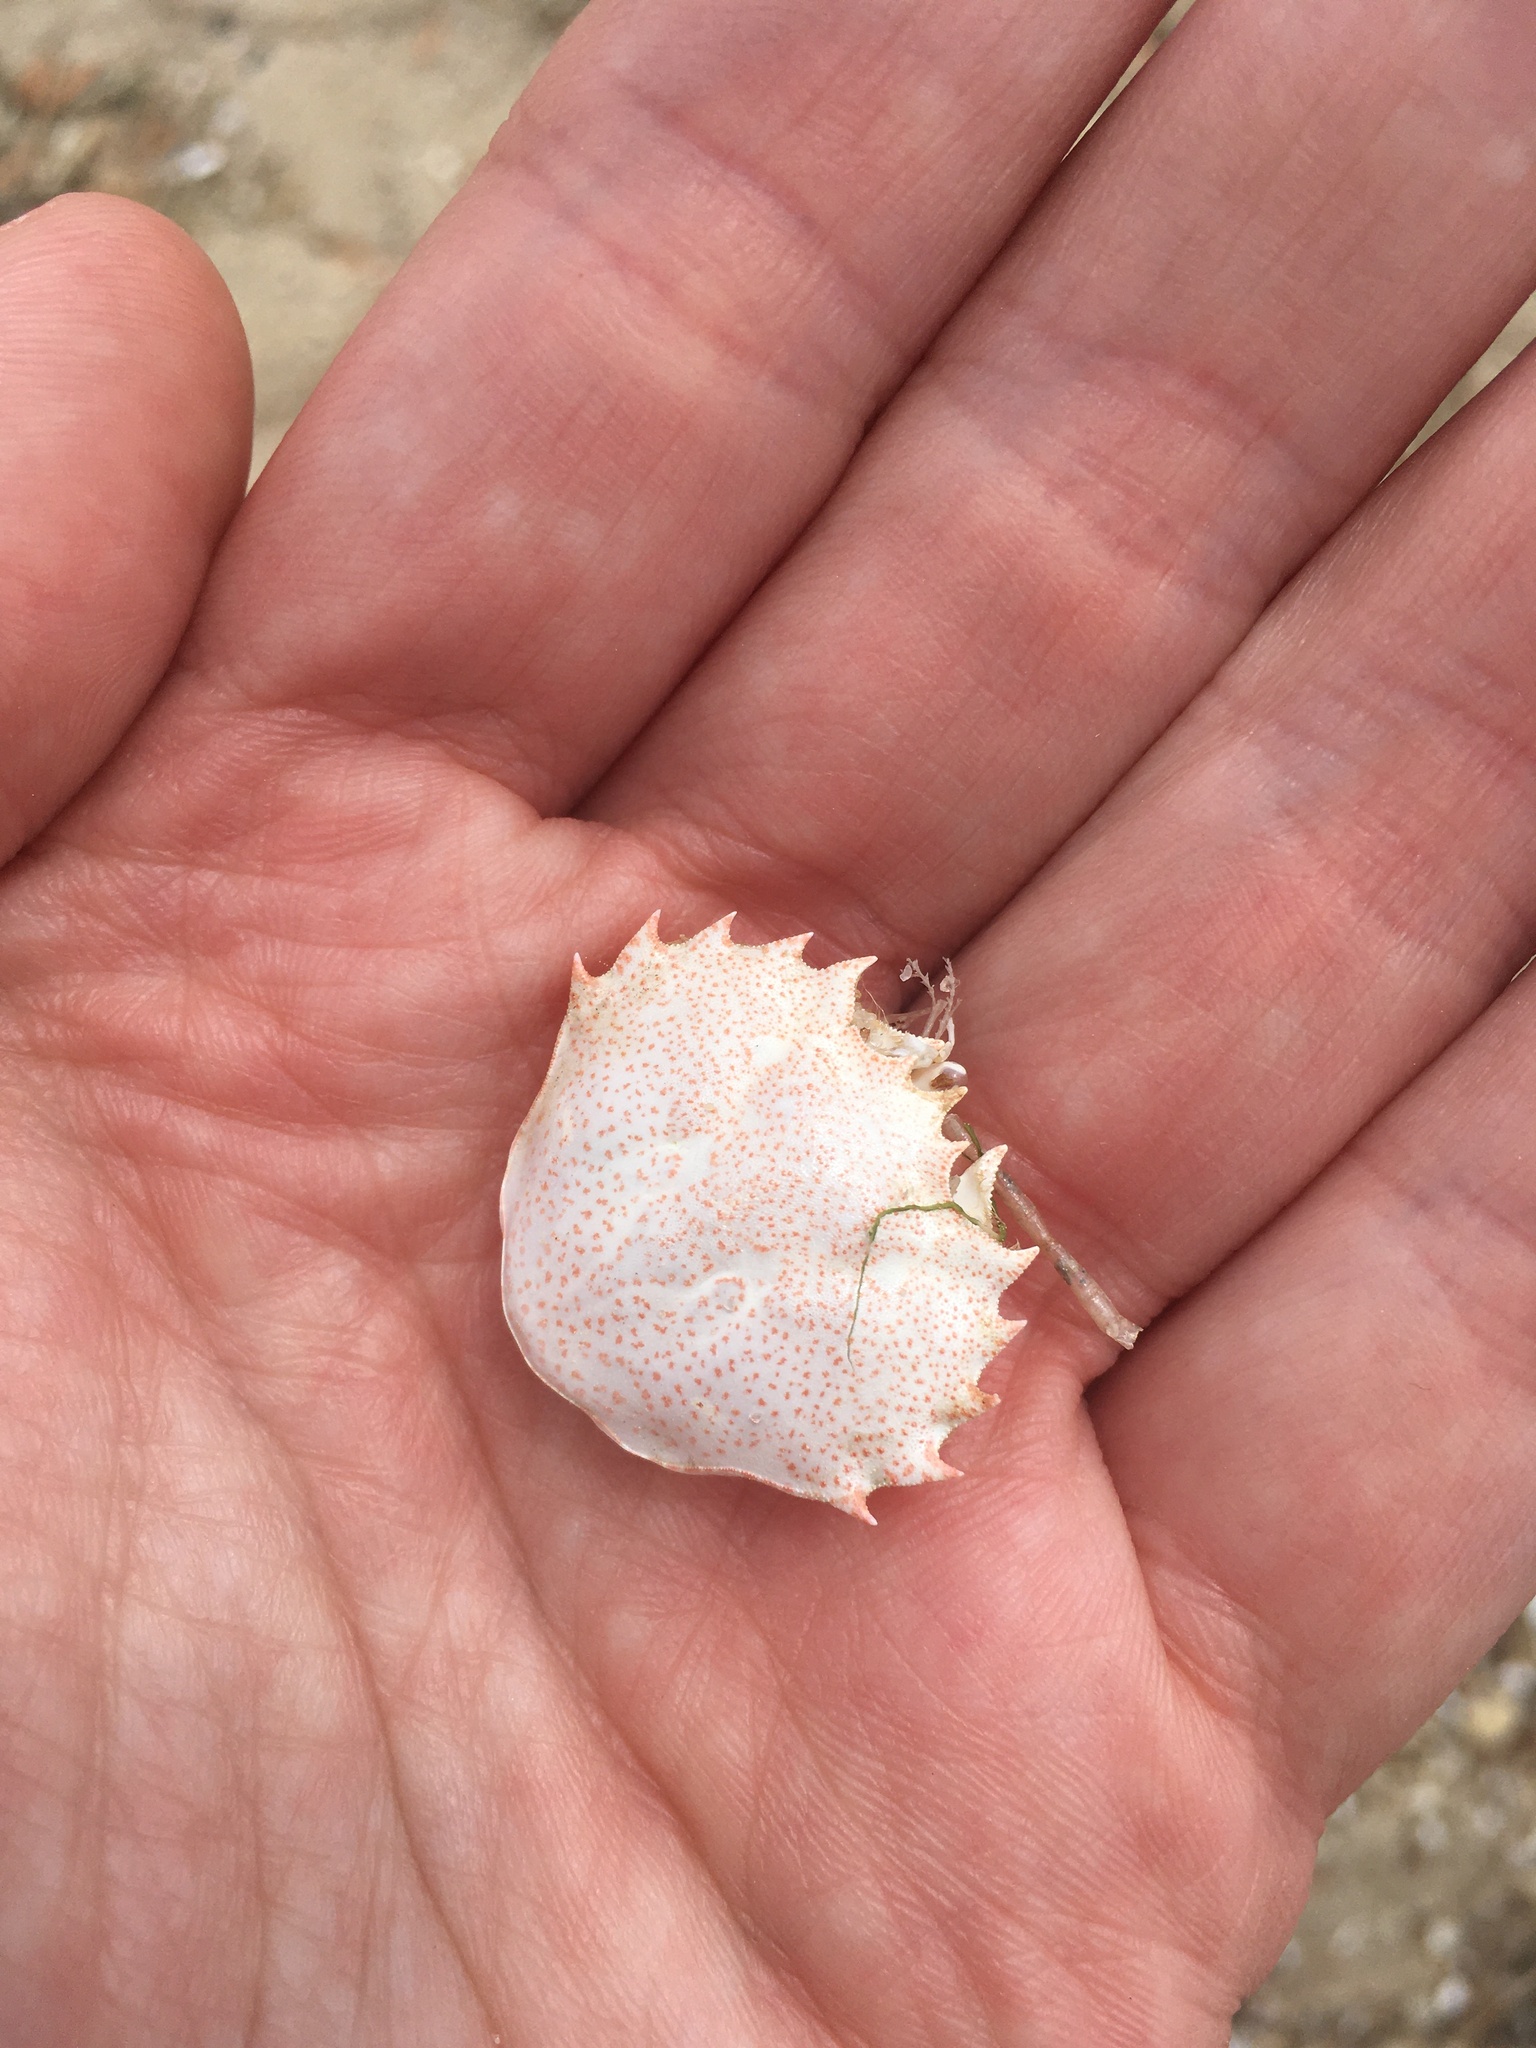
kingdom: Animalia
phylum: Arthropoda
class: Malacostraca
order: Decapoda
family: Ovalipidae
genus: Ovalipes
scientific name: Ovalipes ocellatus
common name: Lady crab
